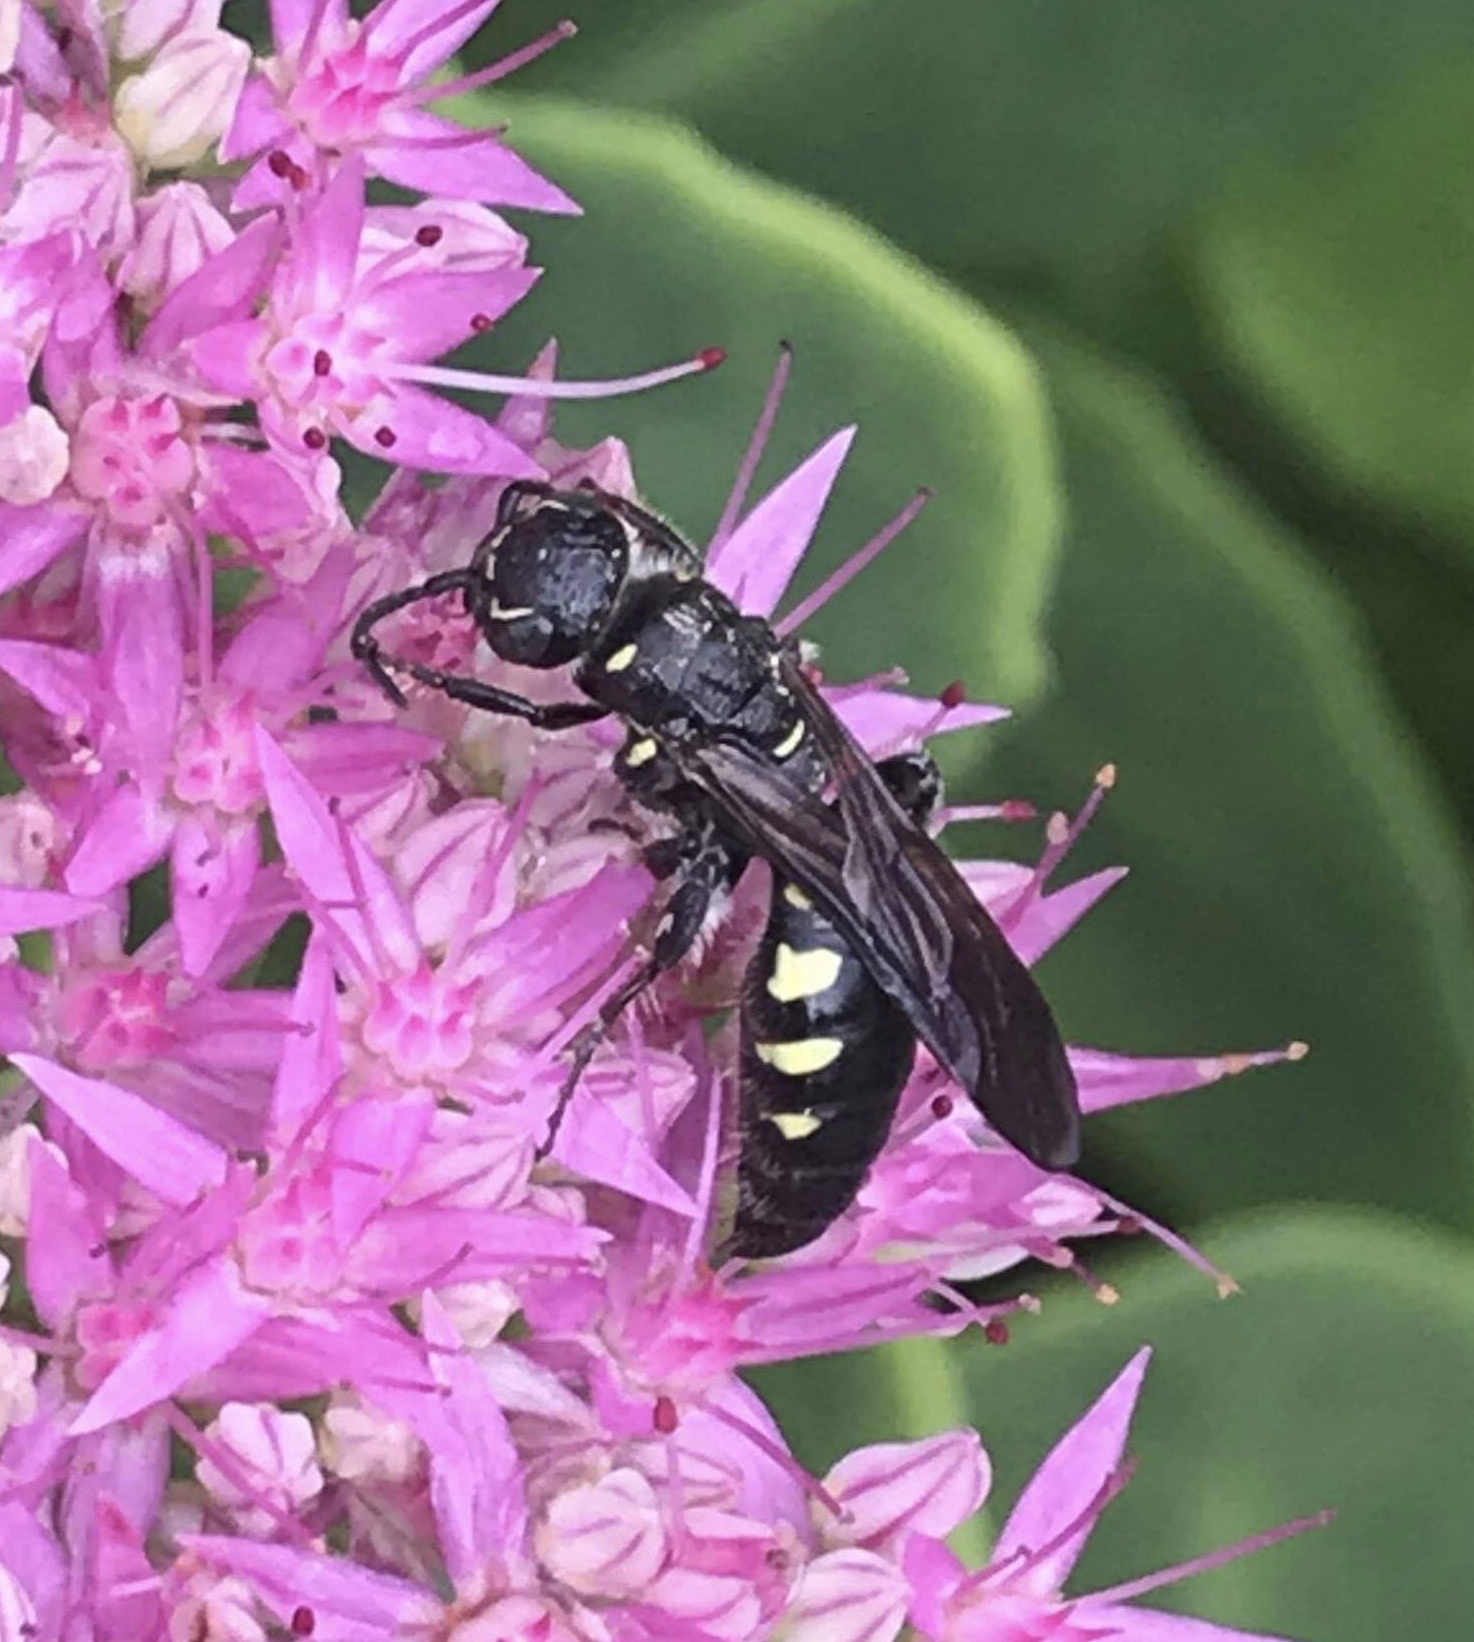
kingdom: Animalia
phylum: Arthropoda
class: Insecta
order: Hymenoptera
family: Tiphiidae
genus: Myzinum
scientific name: Myzinum obscurum
